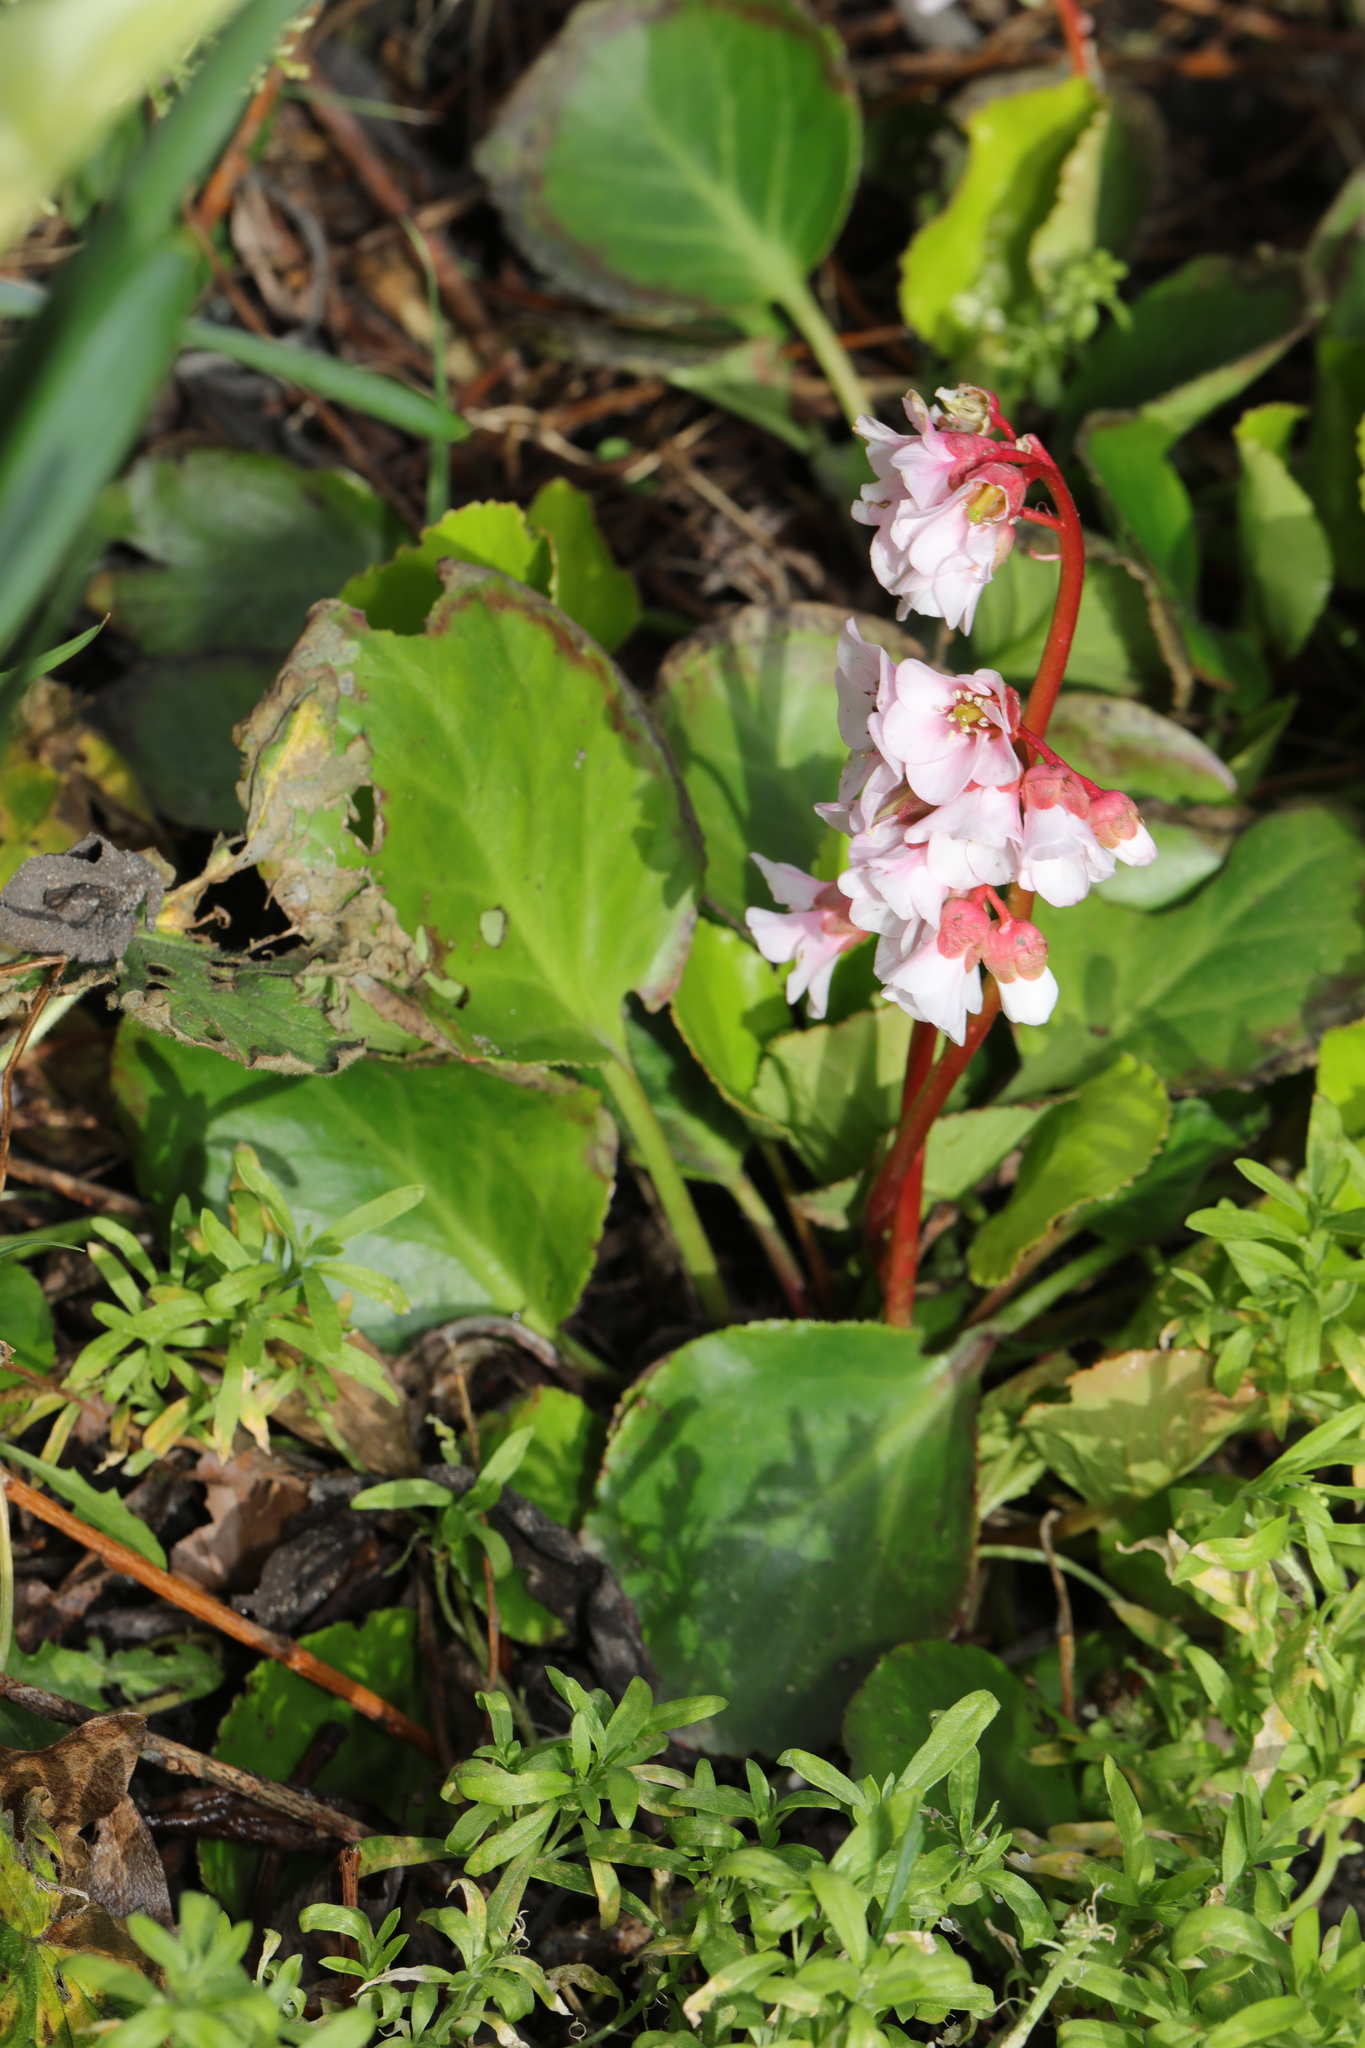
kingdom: Plantae
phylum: Tracheophyta
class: Magnoliopsida
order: Saxifragales
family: Saxifragaceae
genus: Bergenia
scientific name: Bergenia crassifolia
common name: Elephant-ears
